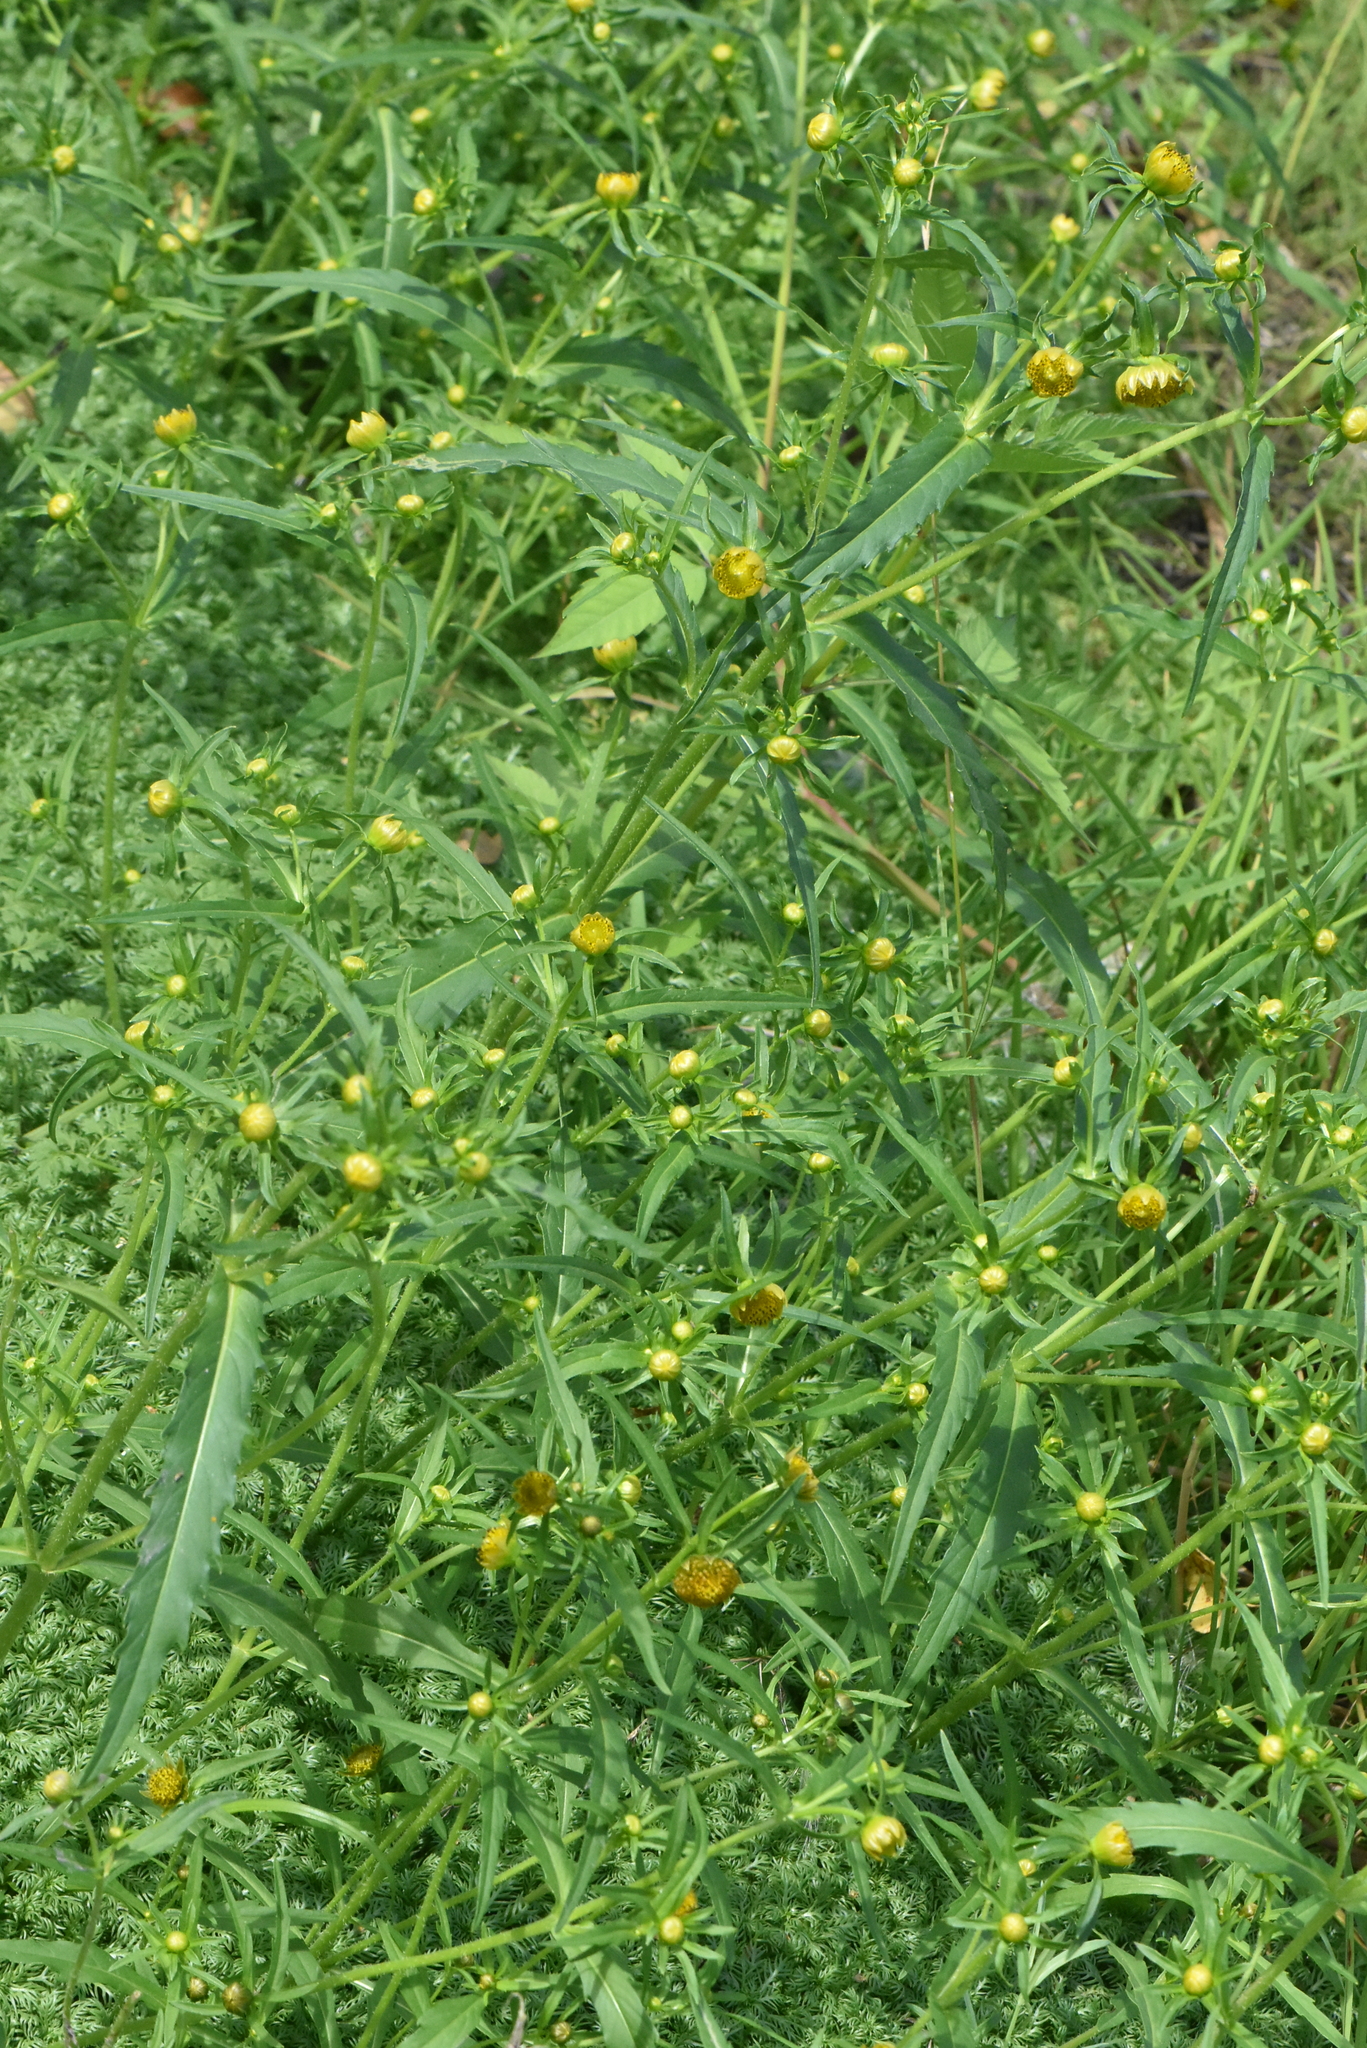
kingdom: Plantae
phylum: Tracheophyta
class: Magnoliopsida
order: Asterales
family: Asteraceae
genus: Bidens
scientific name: Bidens cernua
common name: Nodding bur-marigold
